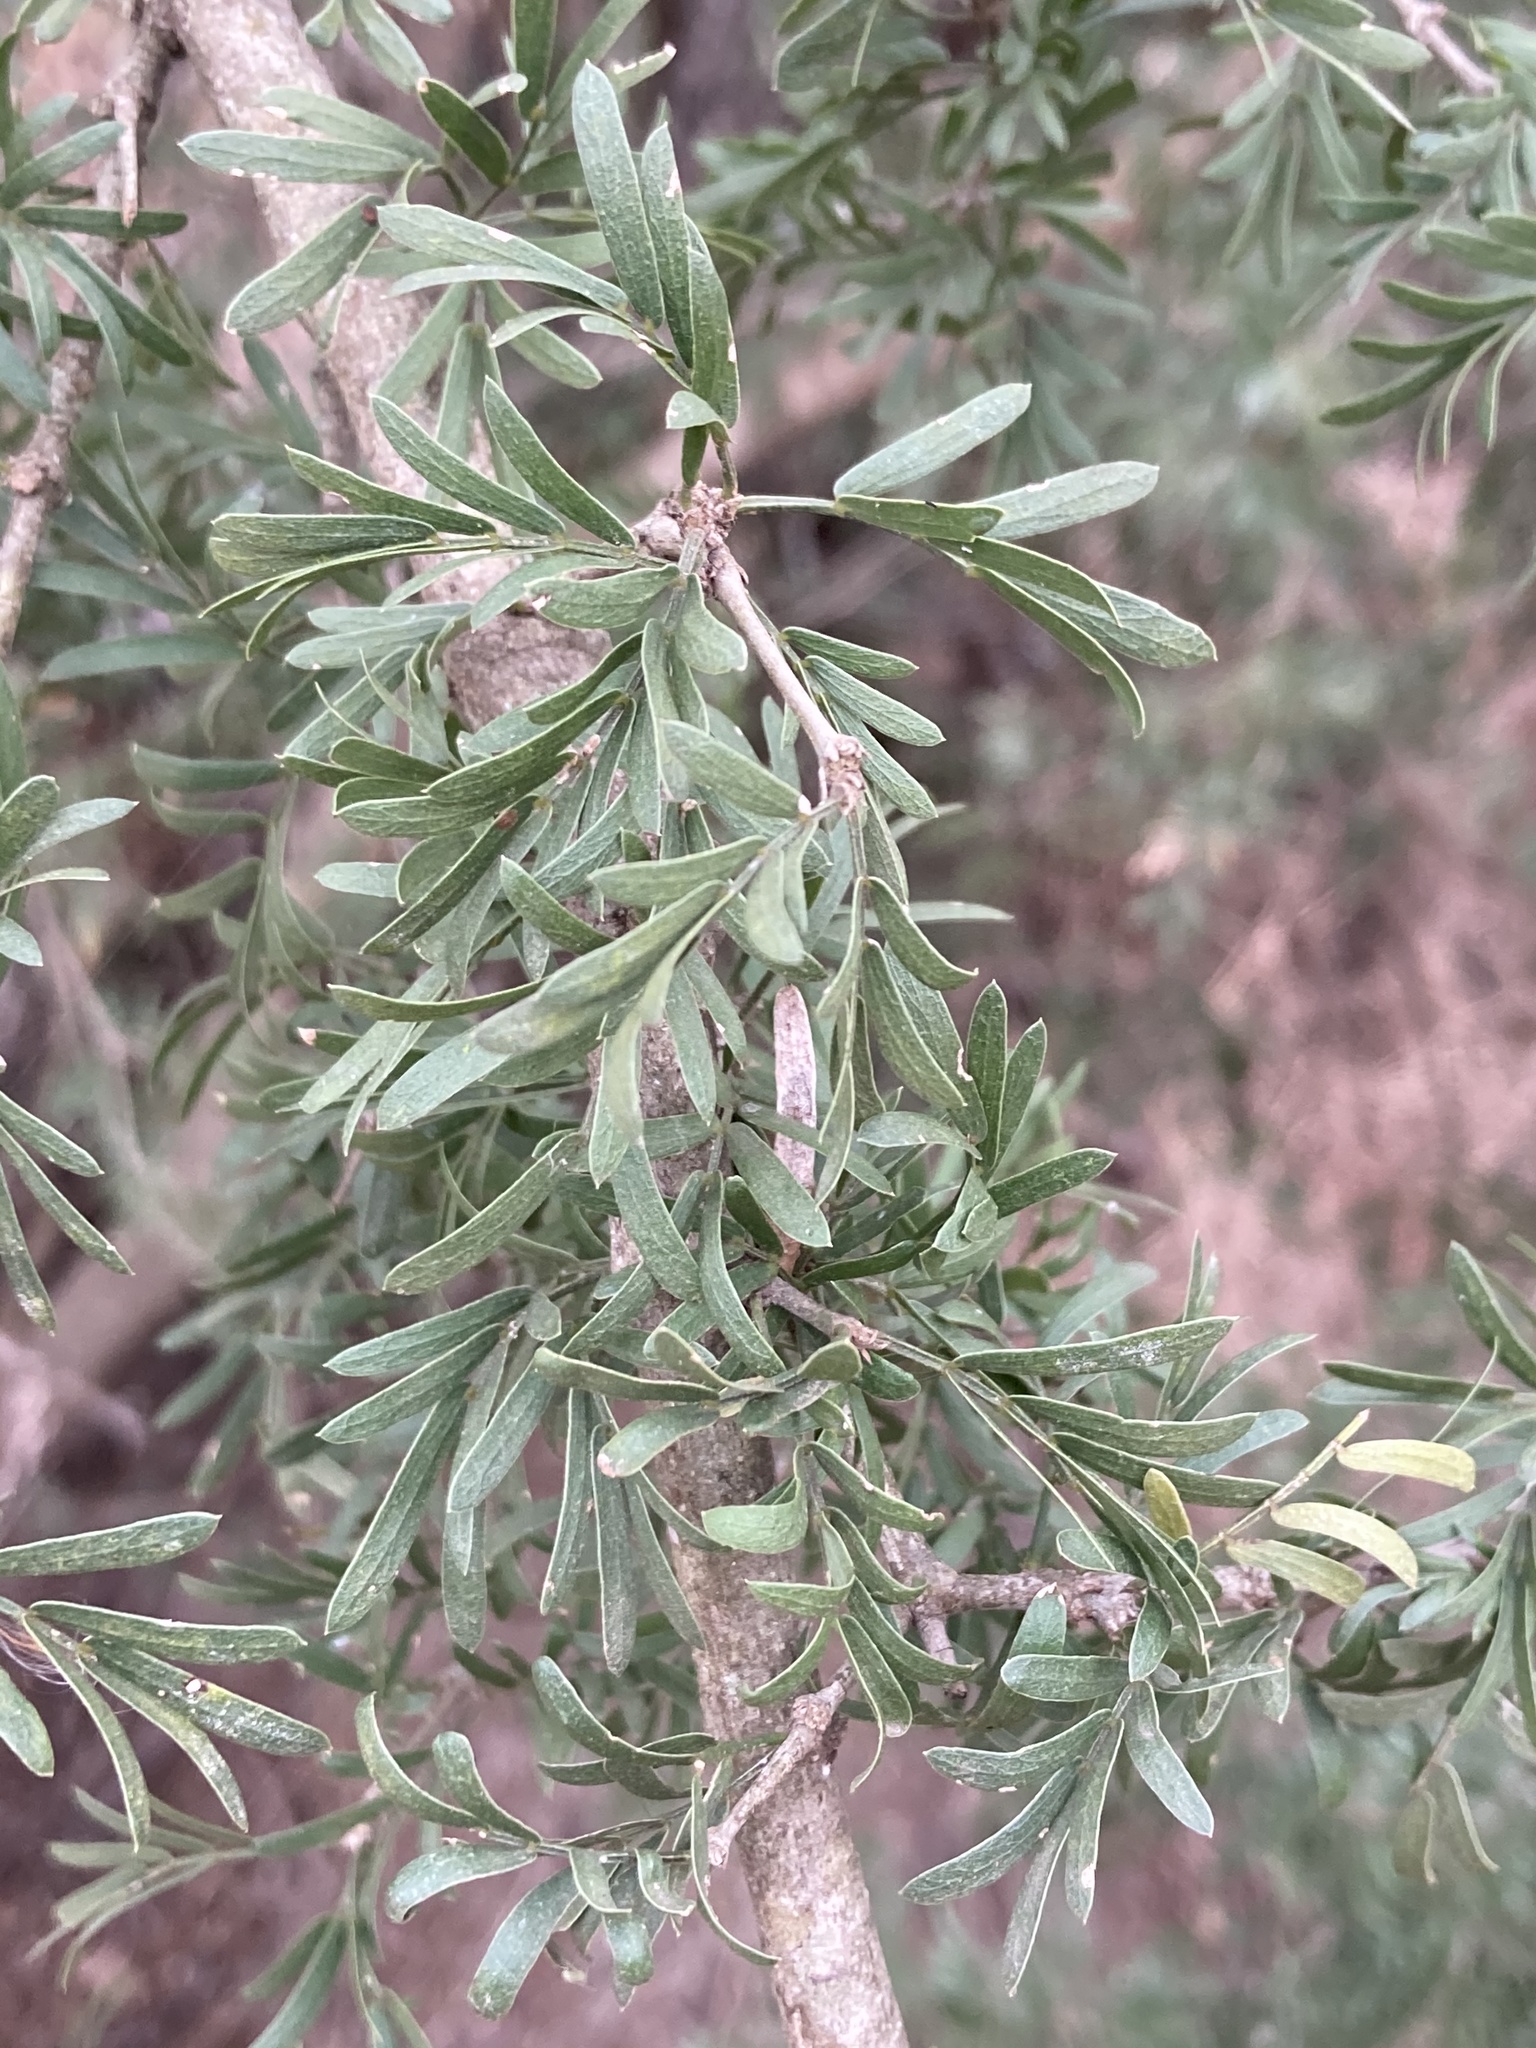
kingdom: Plantae
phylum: Tracheophyta
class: Magnoliopsida
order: Zygophyllales
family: Zygophyllaceae
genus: Porlieria
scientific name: Porlieria angustifolia
